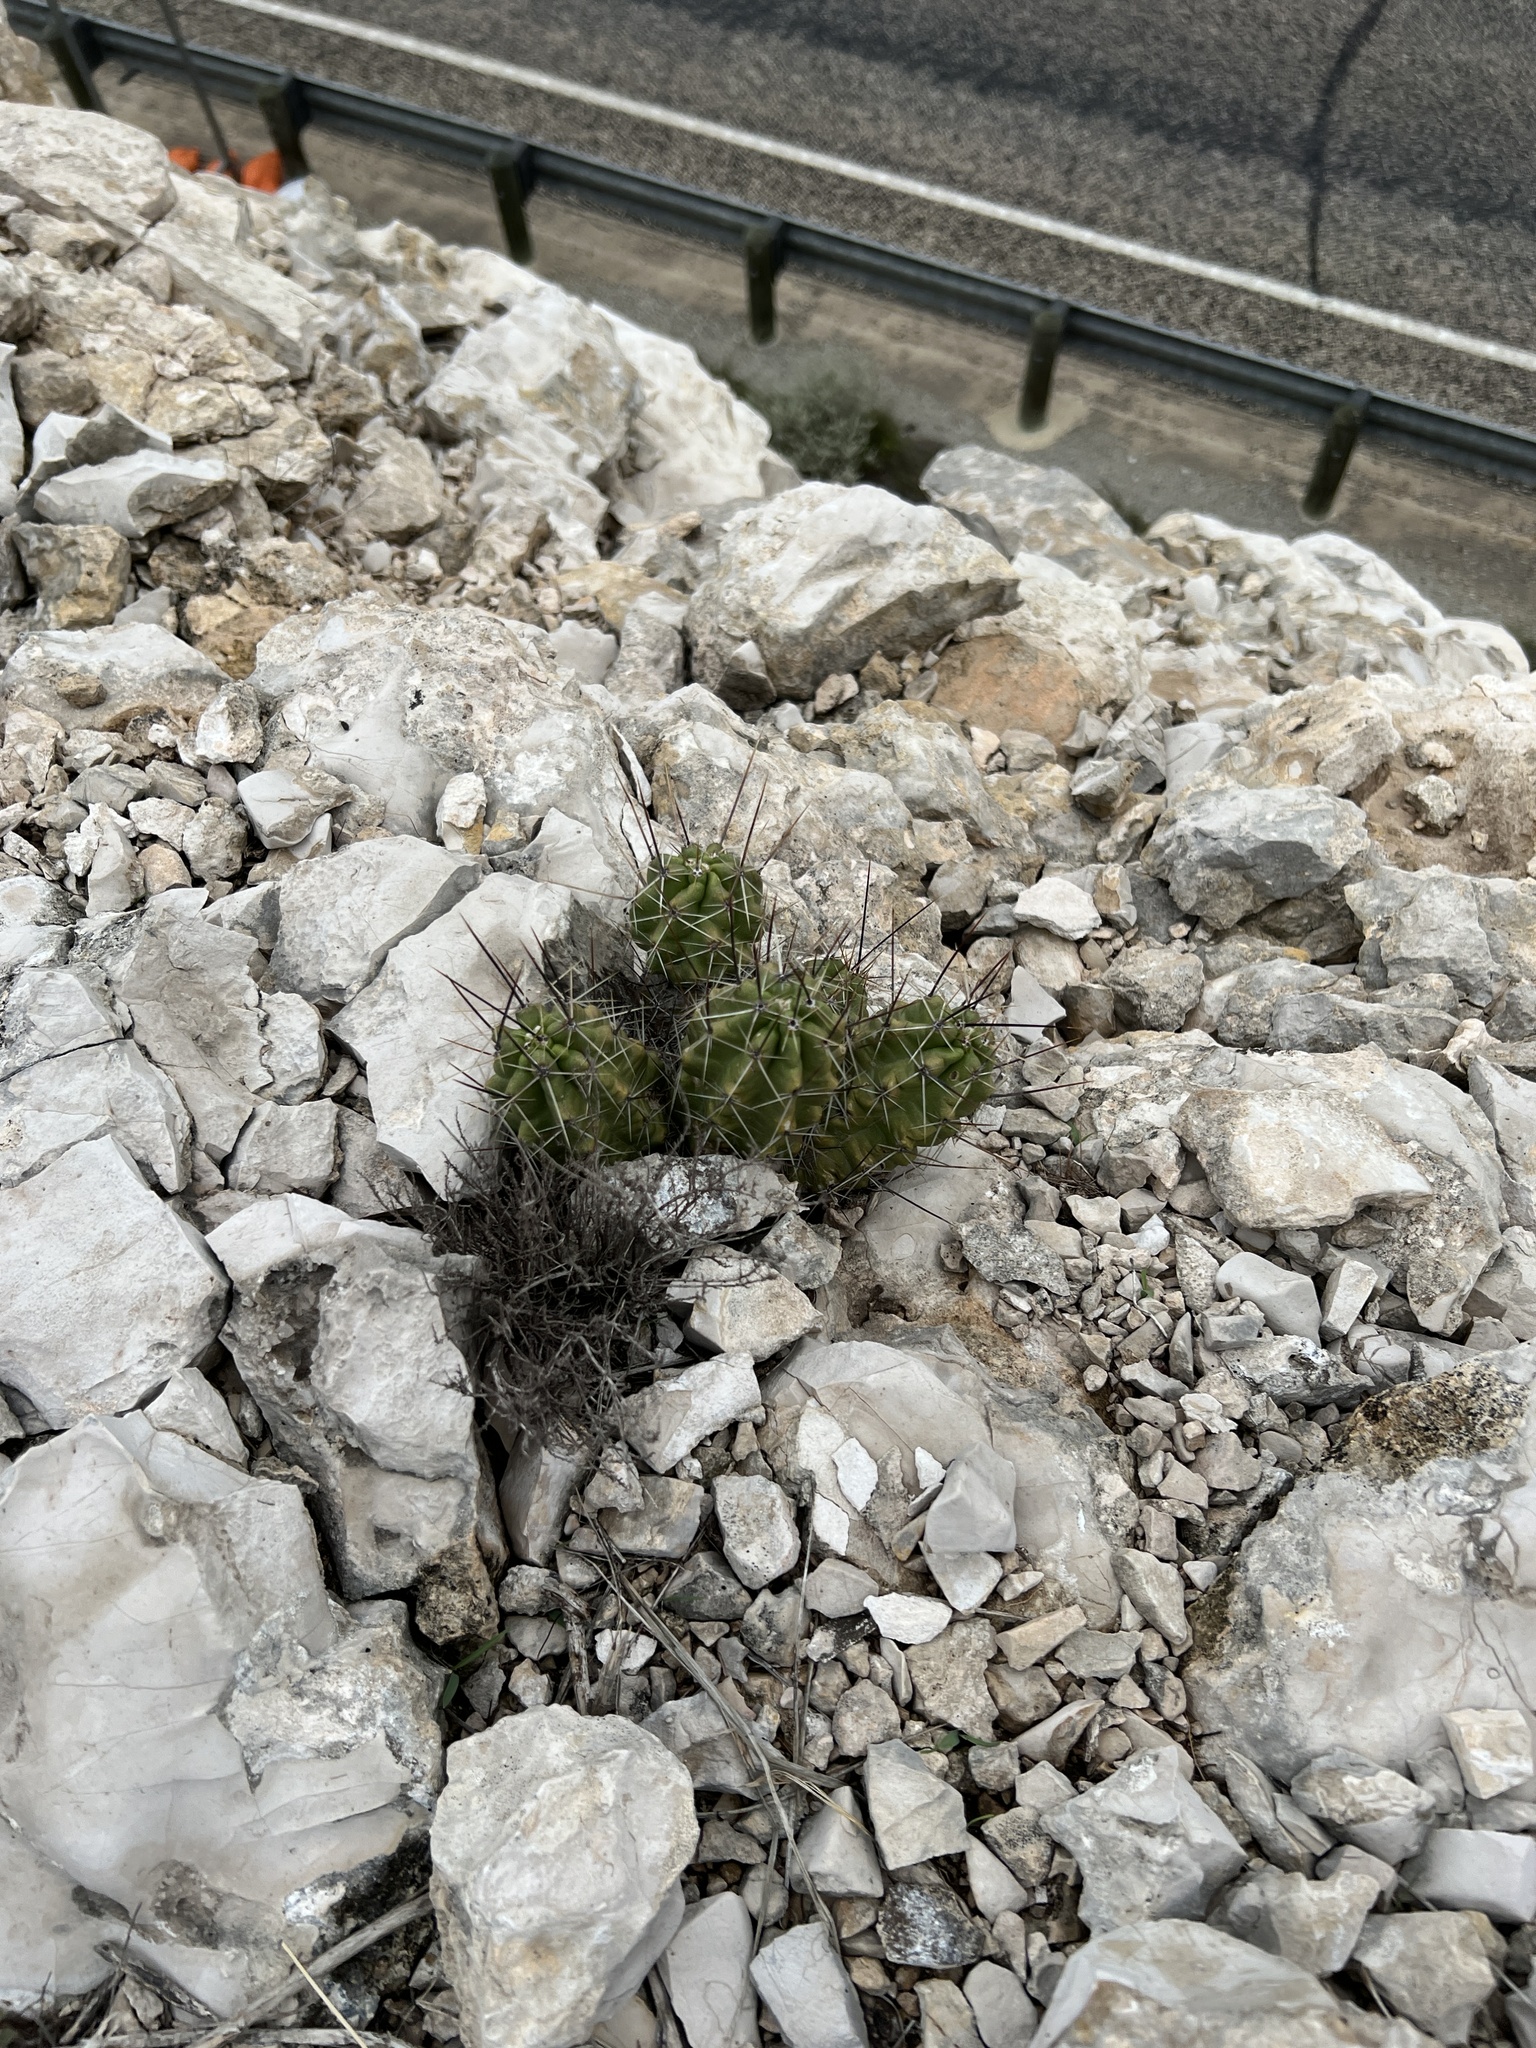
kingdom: Plantae
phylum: Tracheophyta
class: Magnoliopsida
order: Caryophyllales
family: Cactaceae
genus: Echinocereus
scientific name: Echinocereus enneacanthus
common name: Pitaya
